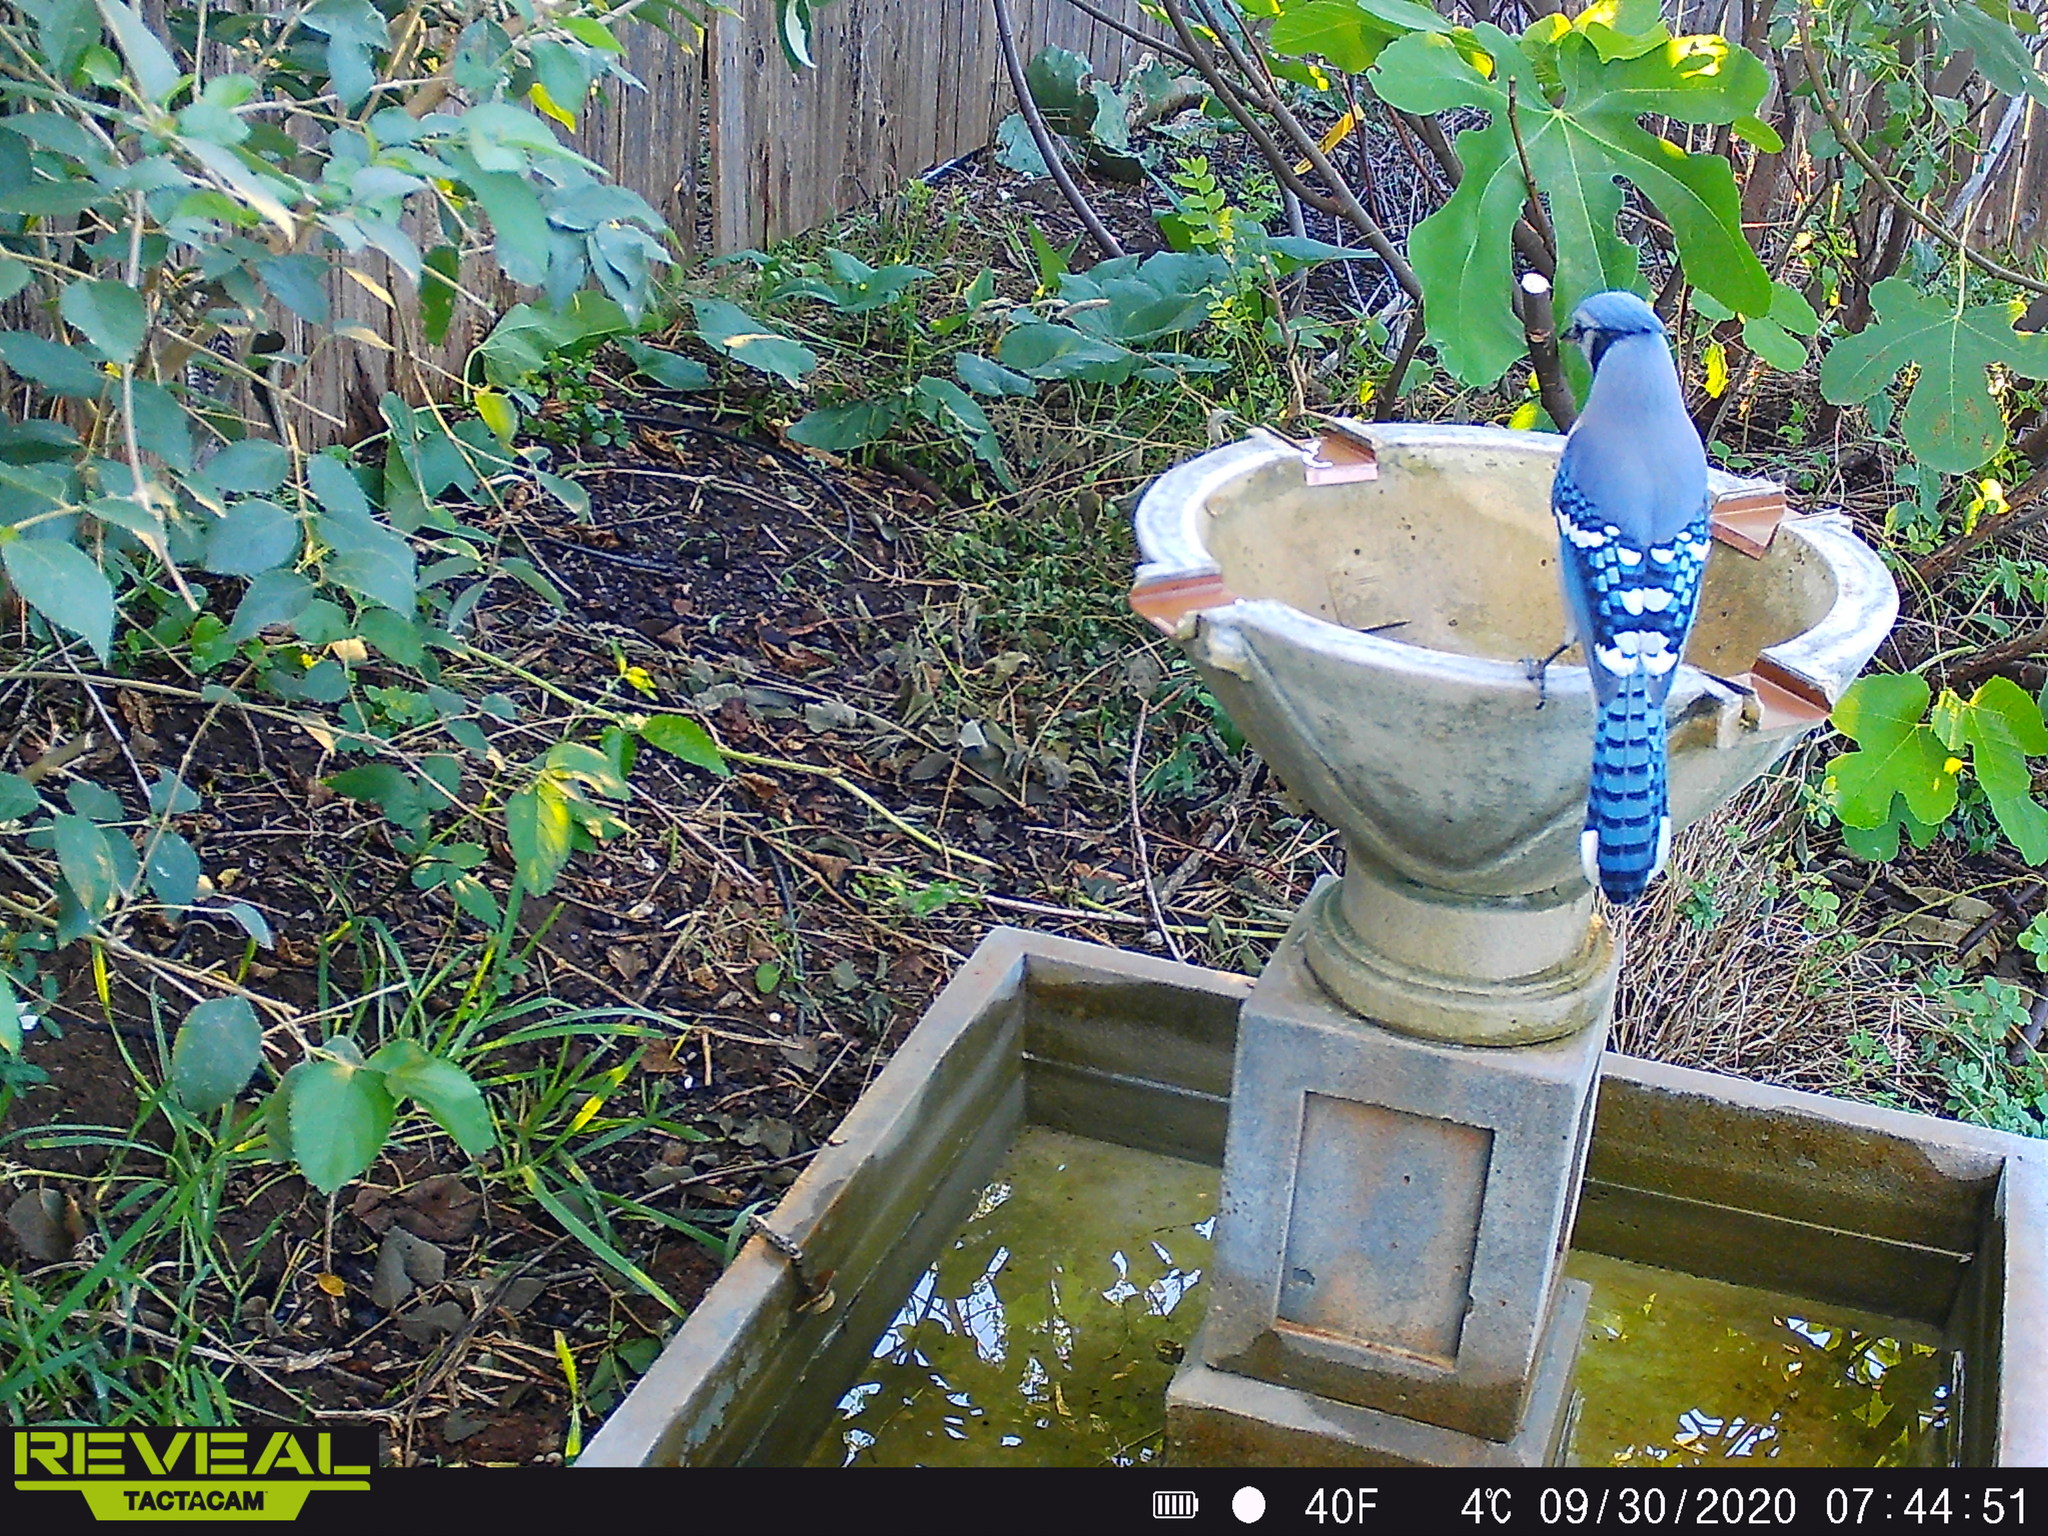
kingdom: Animalia
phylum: Chordata
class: Aves
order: Passeriformes
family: Corvidae
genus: Cyanocitta
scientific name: Cyanocitta cristata
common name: Blue jay
